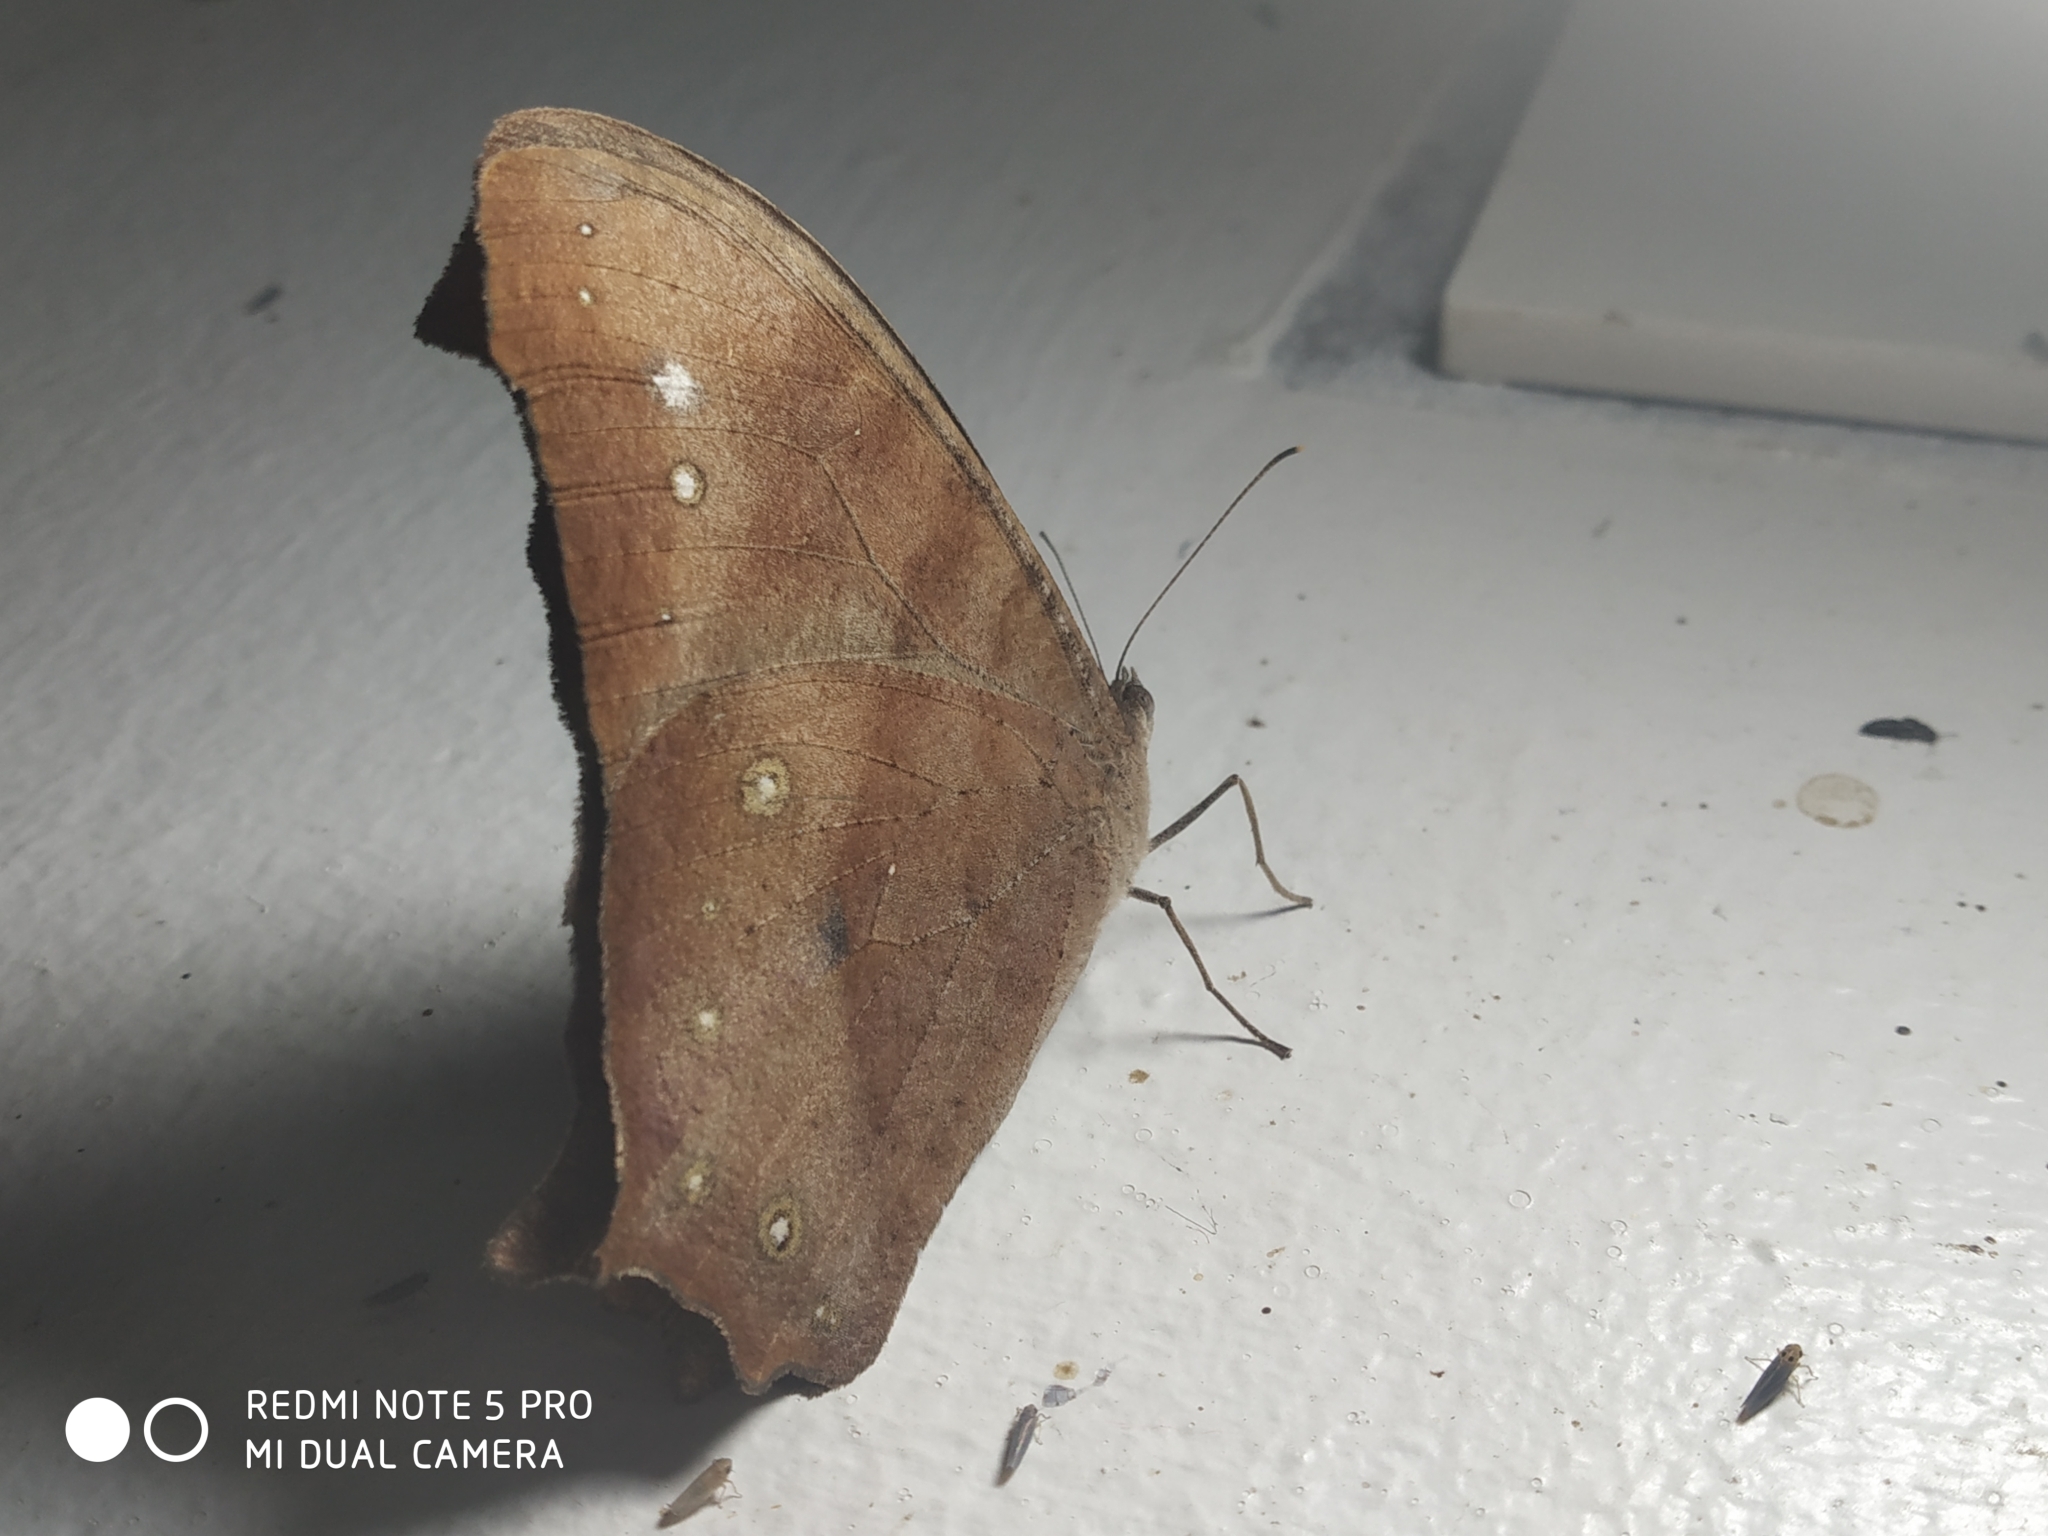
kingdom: Animalia
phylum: Arthropoda
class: Insecta
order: Lepidoptera
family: Nymphalidae
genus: Melanitis
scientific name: Melanitis leda
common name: Twilight brown
